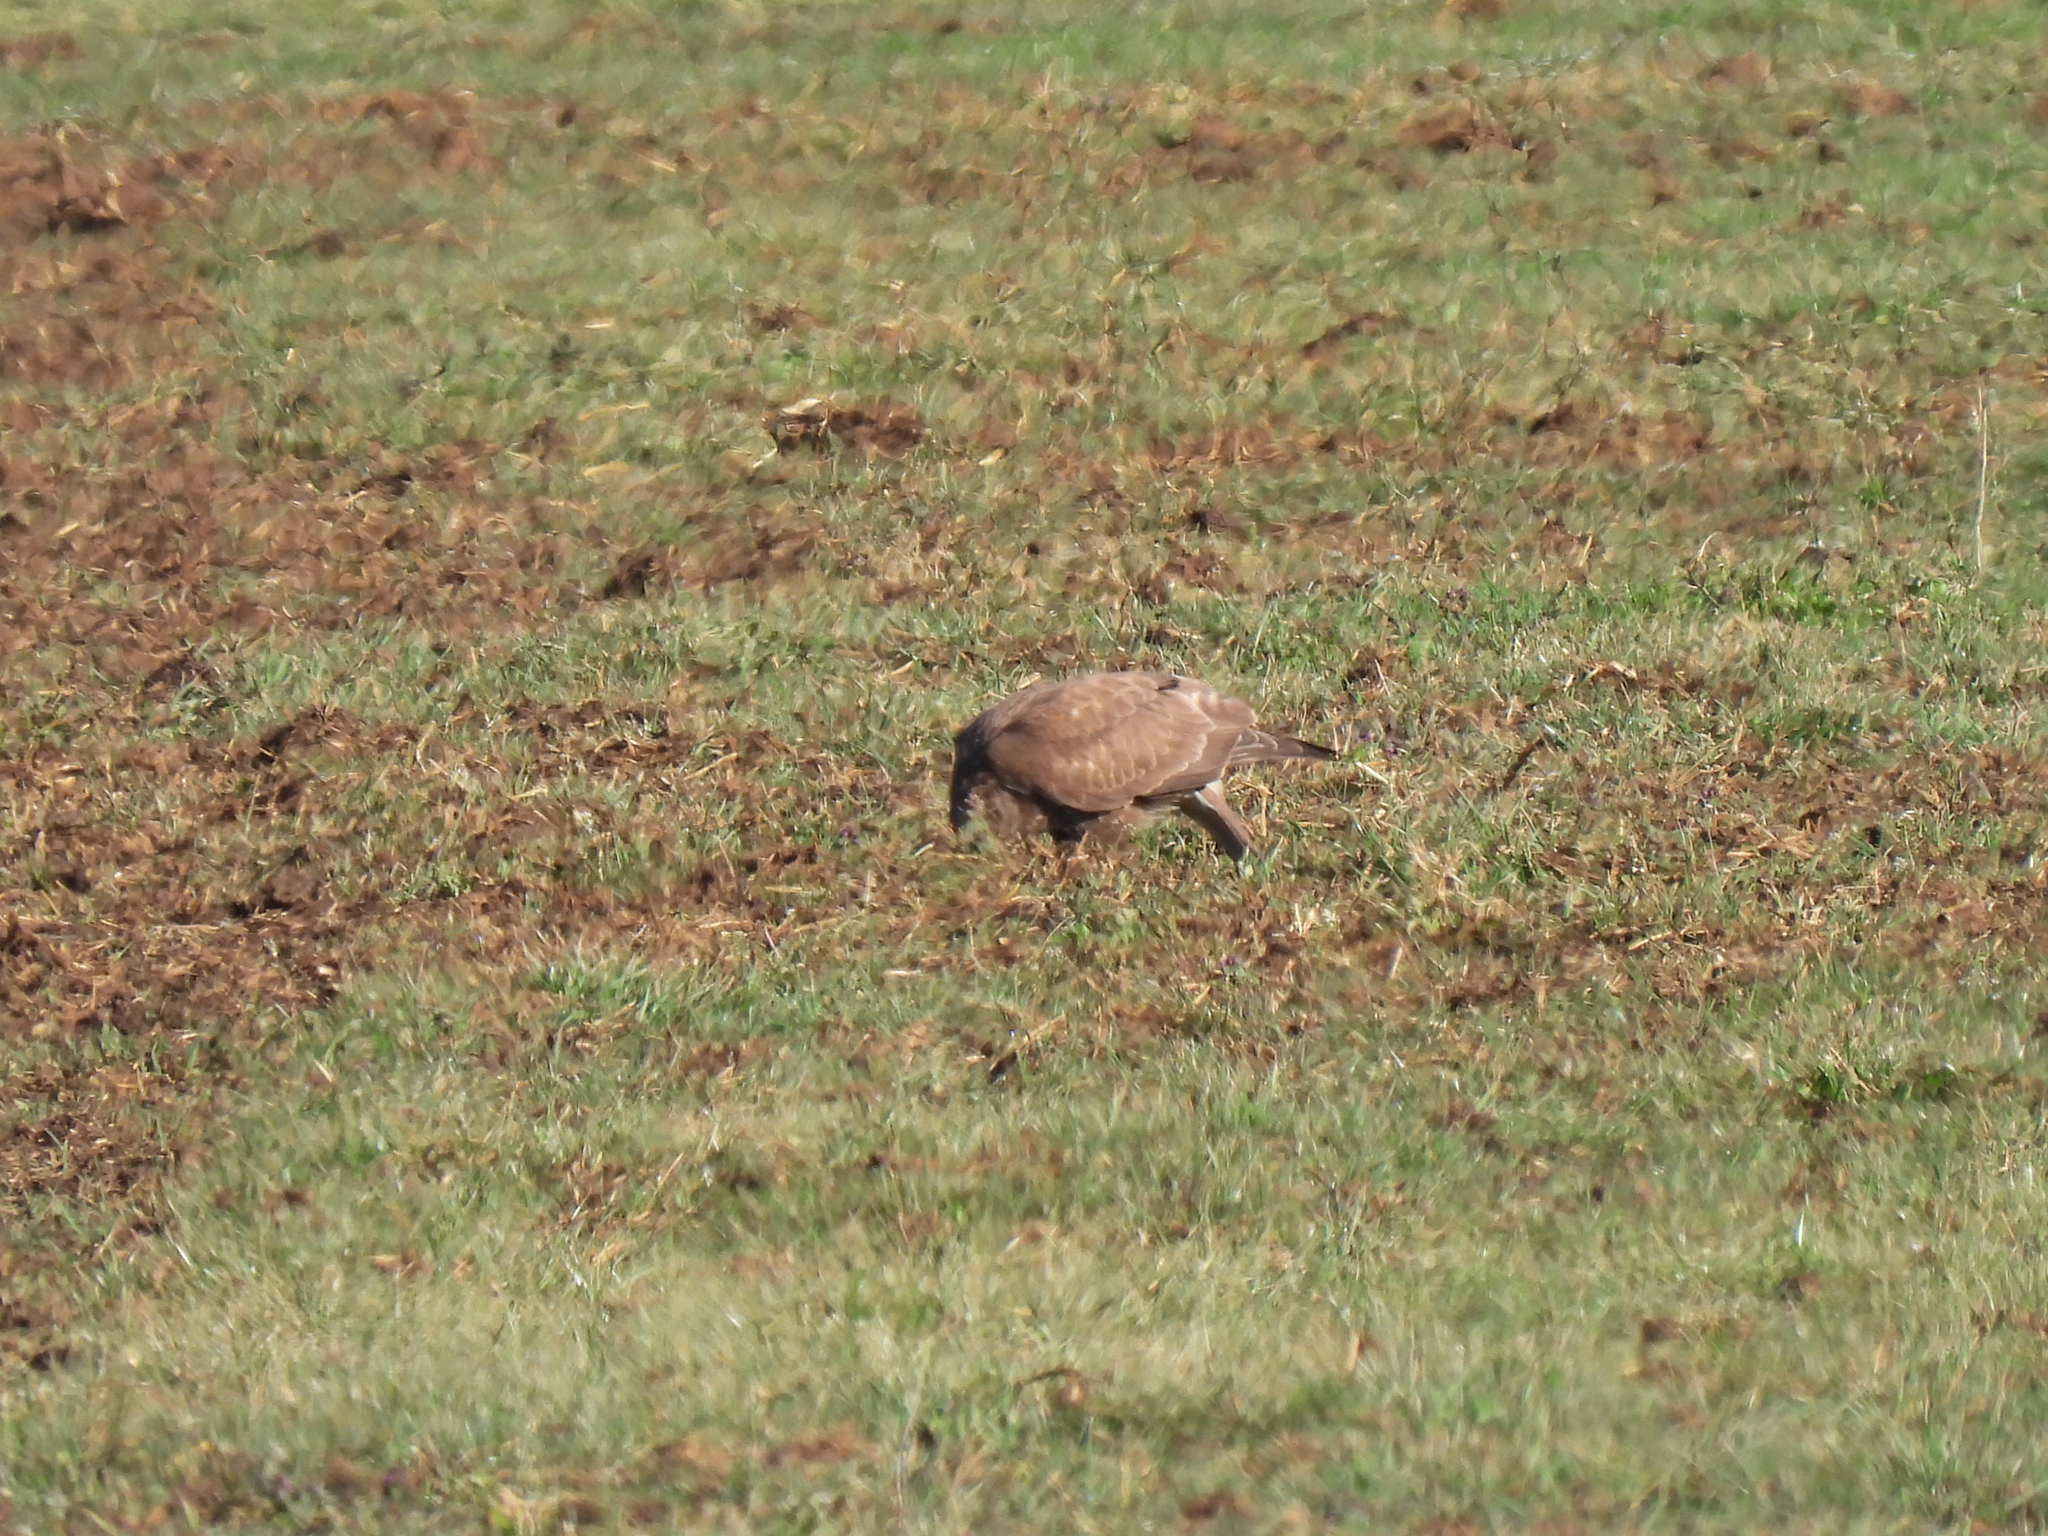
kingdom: Animalia
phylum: Chordata
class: Aves
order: Accipitriformes
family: Accipitridae
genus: Buteo
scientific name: Buteo buteo
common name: Common buzzard
